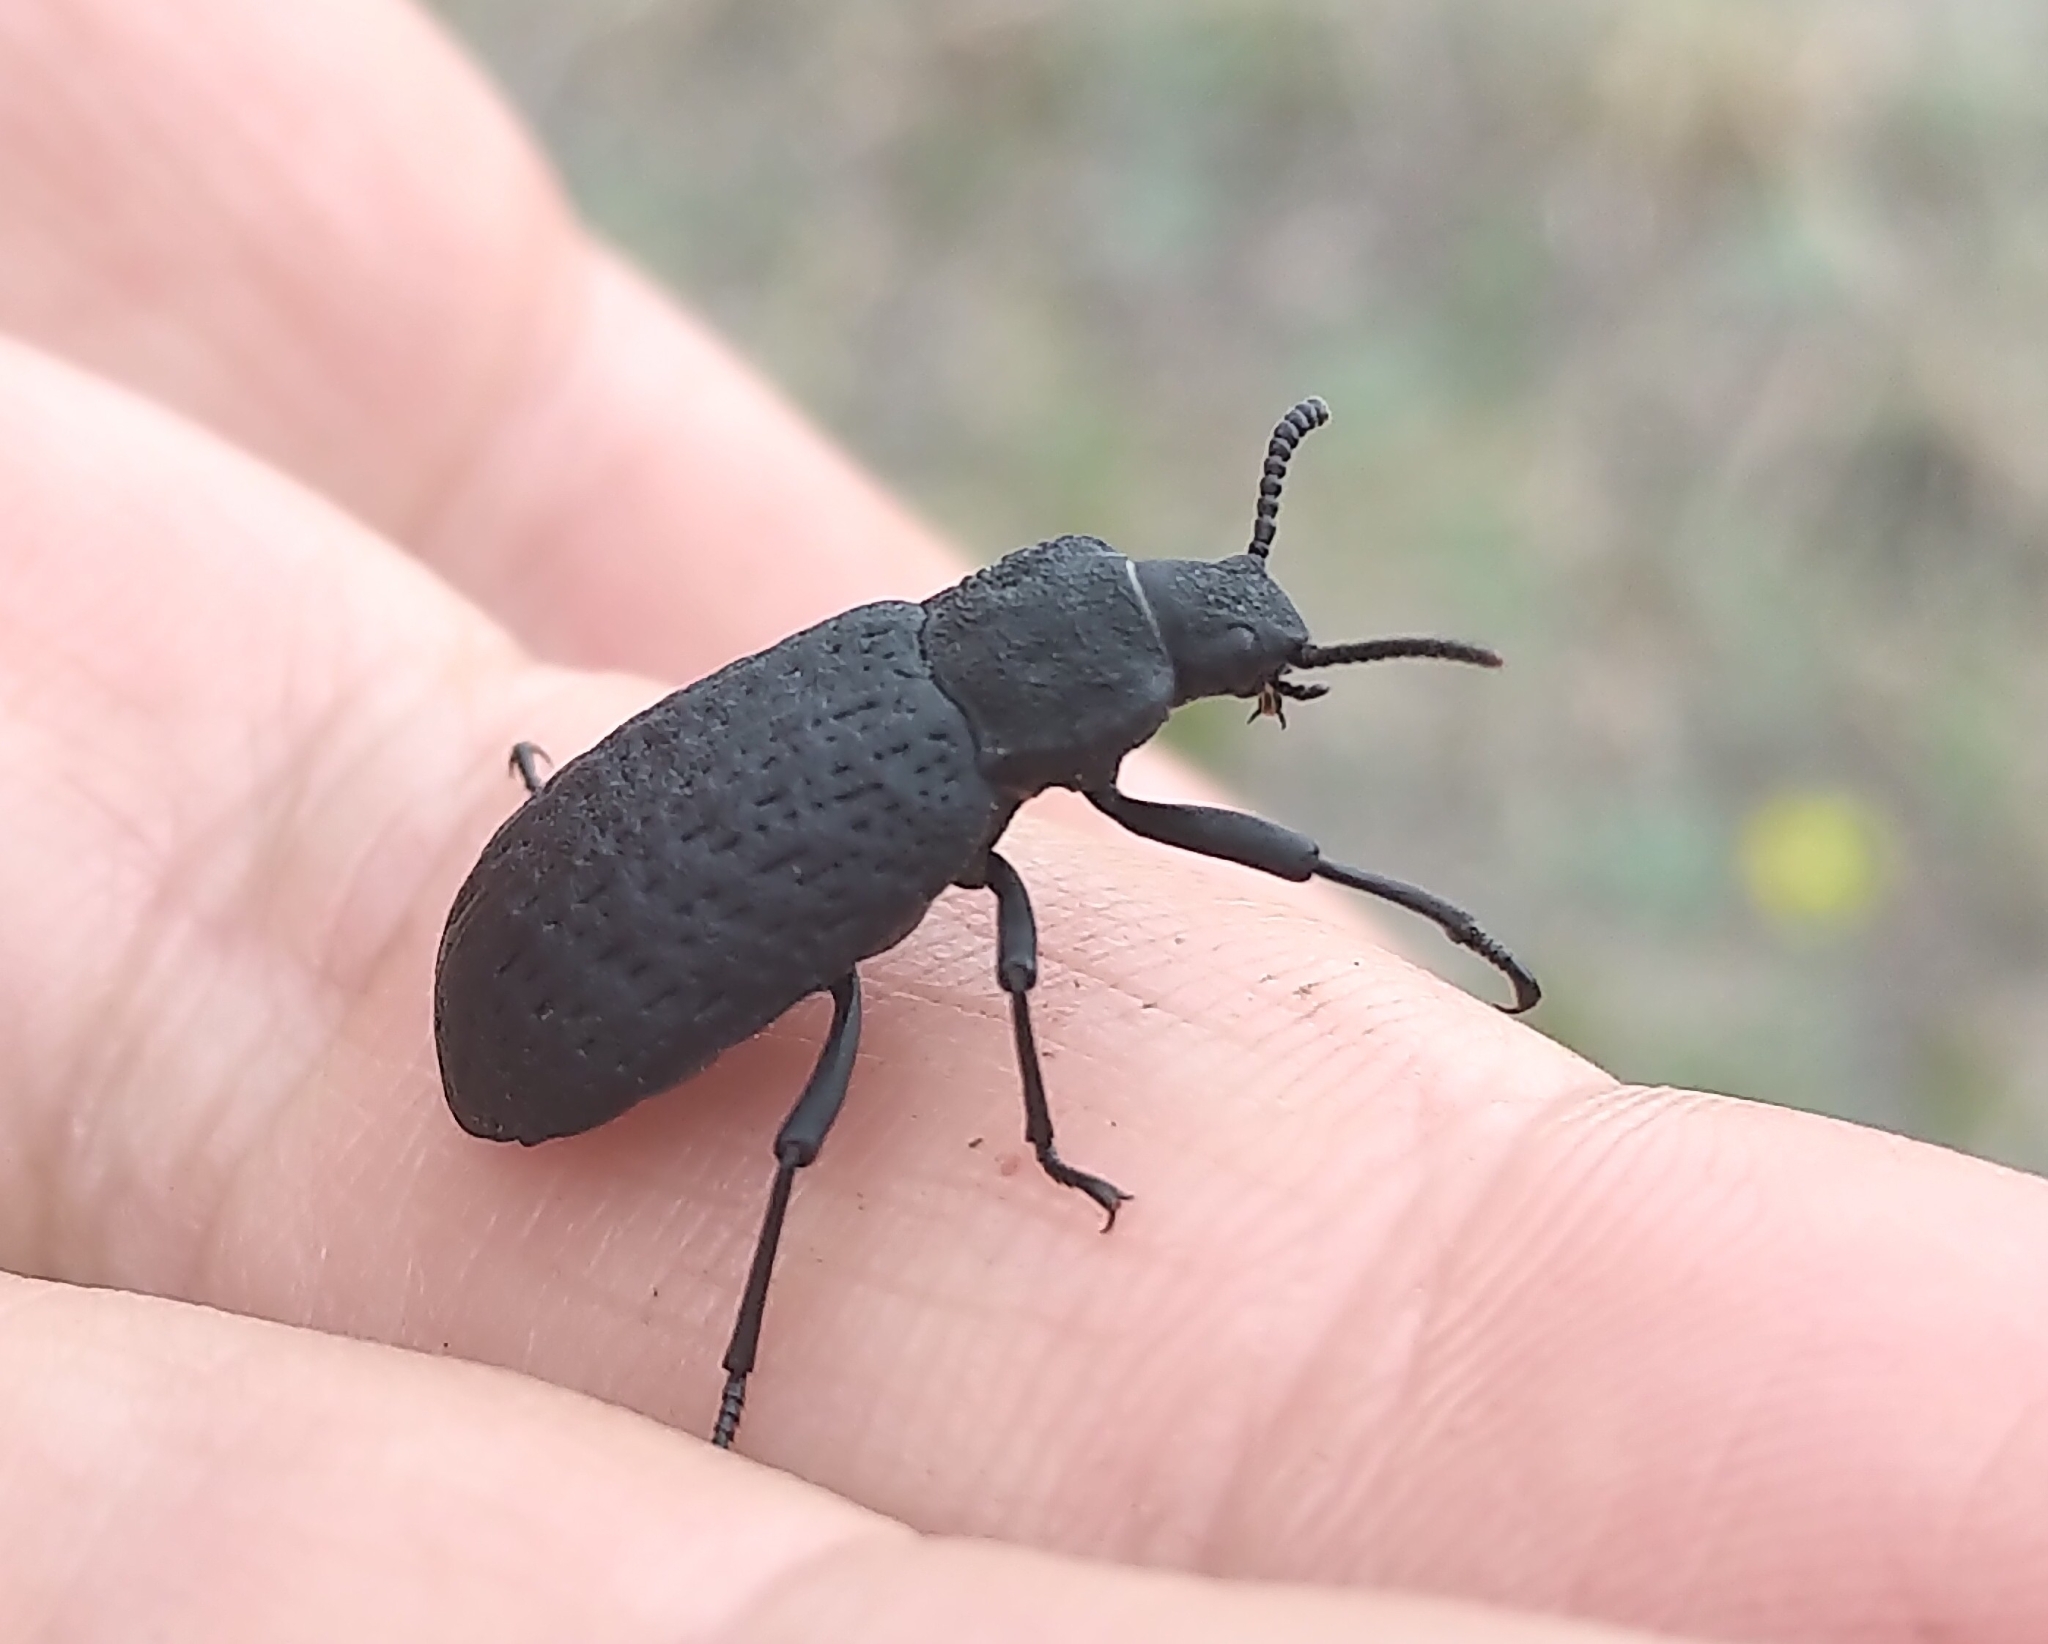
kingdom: Animalia
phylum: Arthropoda
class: Insecta
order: Coleoptera
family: Tenebrionidae
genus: Iphthiminus
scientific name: Iphthiminus opacus
